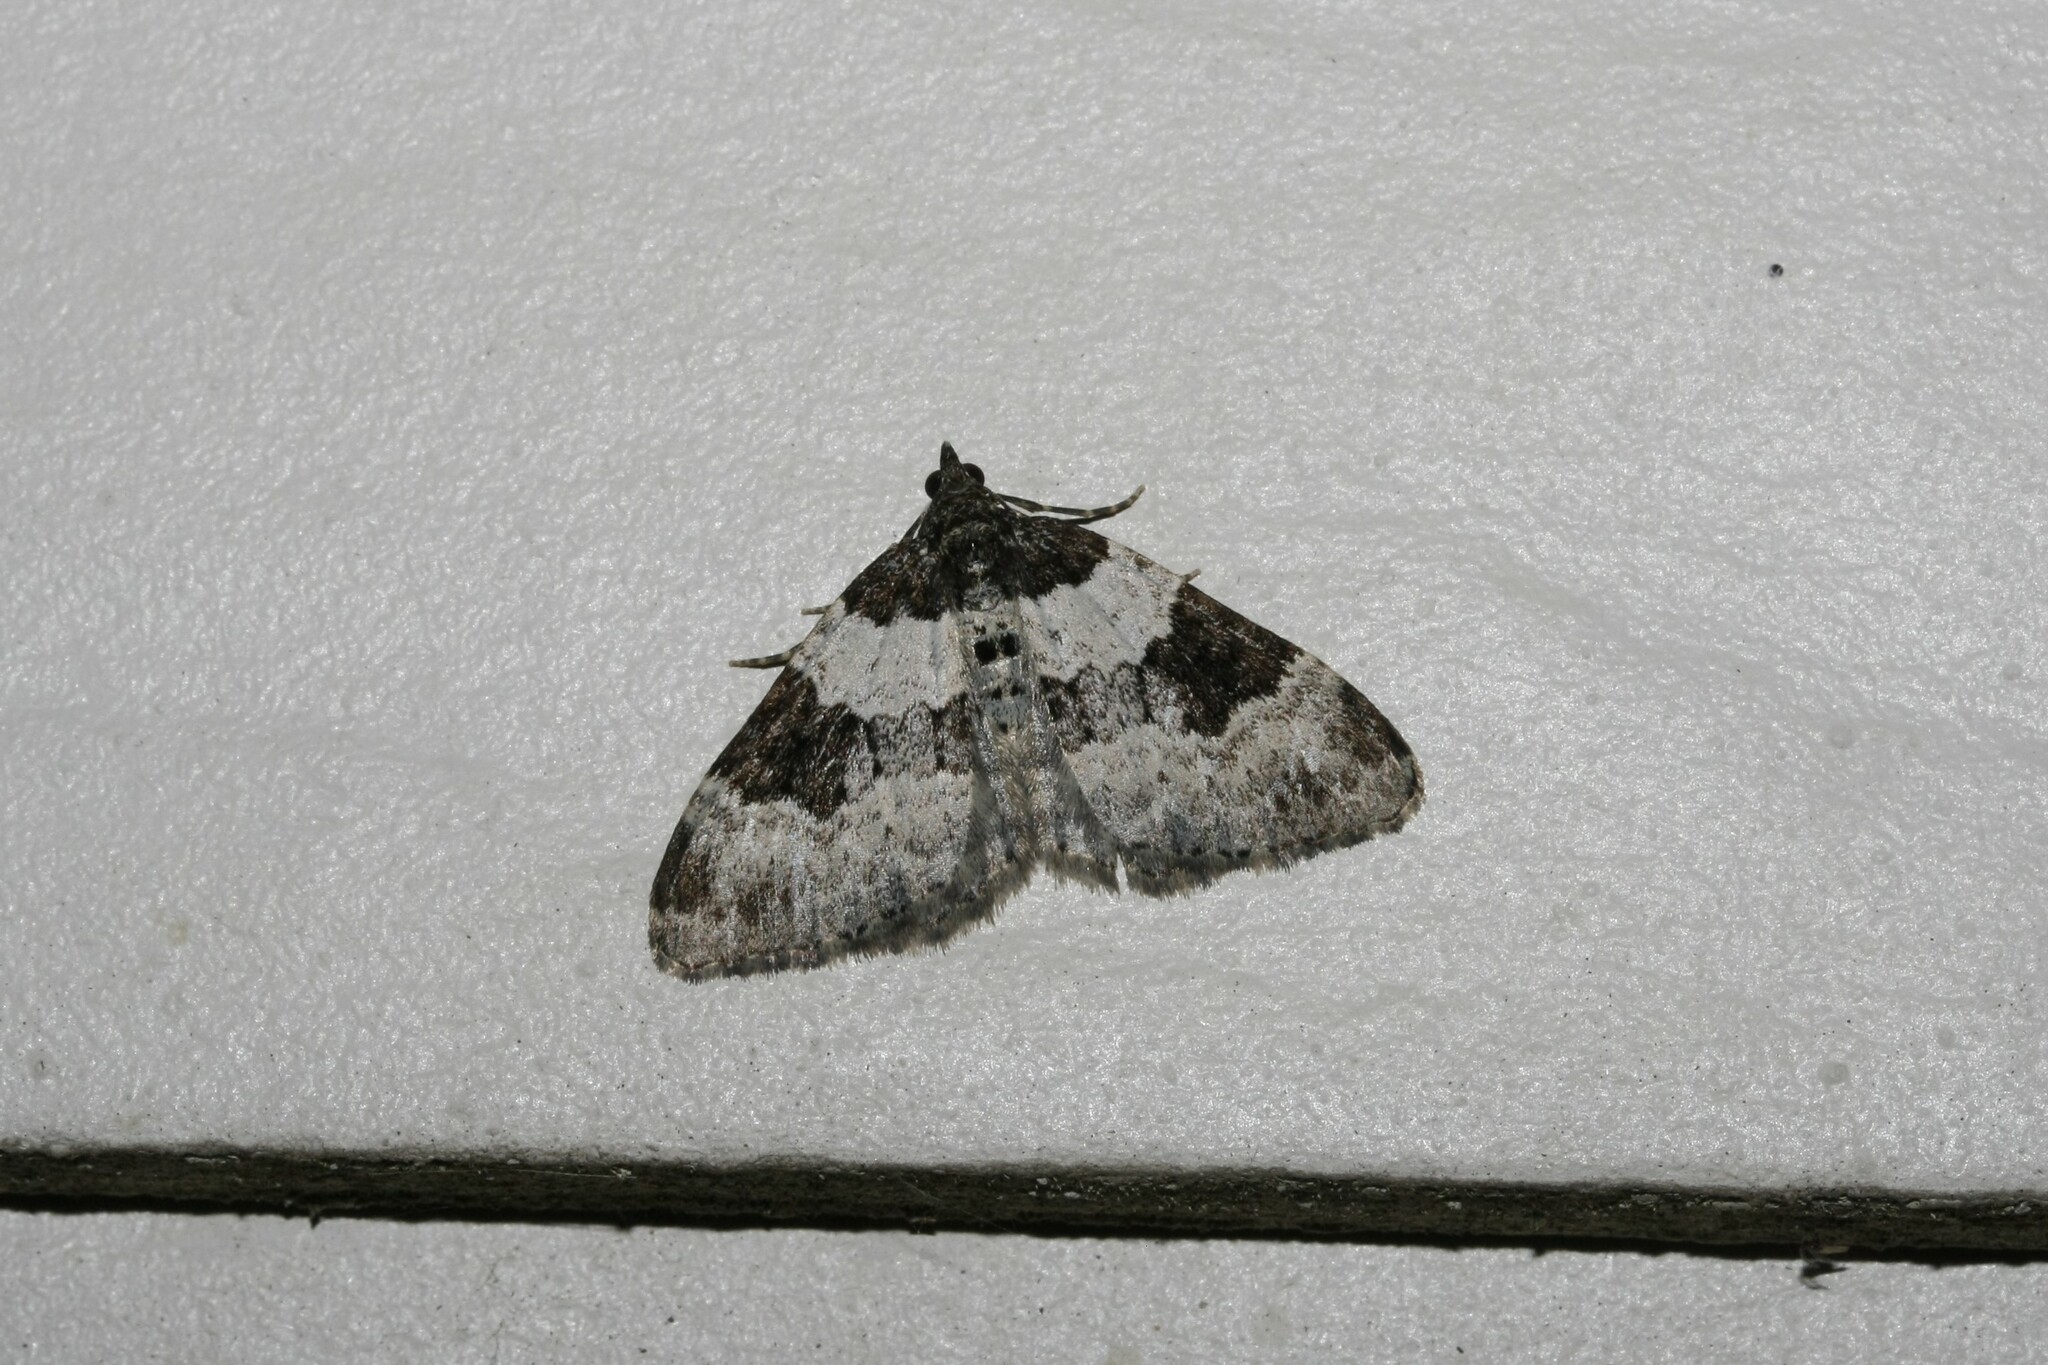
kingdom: Animalia
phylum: Arthropoda
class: Insecta
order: Lepidoptera
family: Geometridae
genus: Xanthorhoe
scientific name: Xanthorhoe fluctuata
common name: Garden carpet
